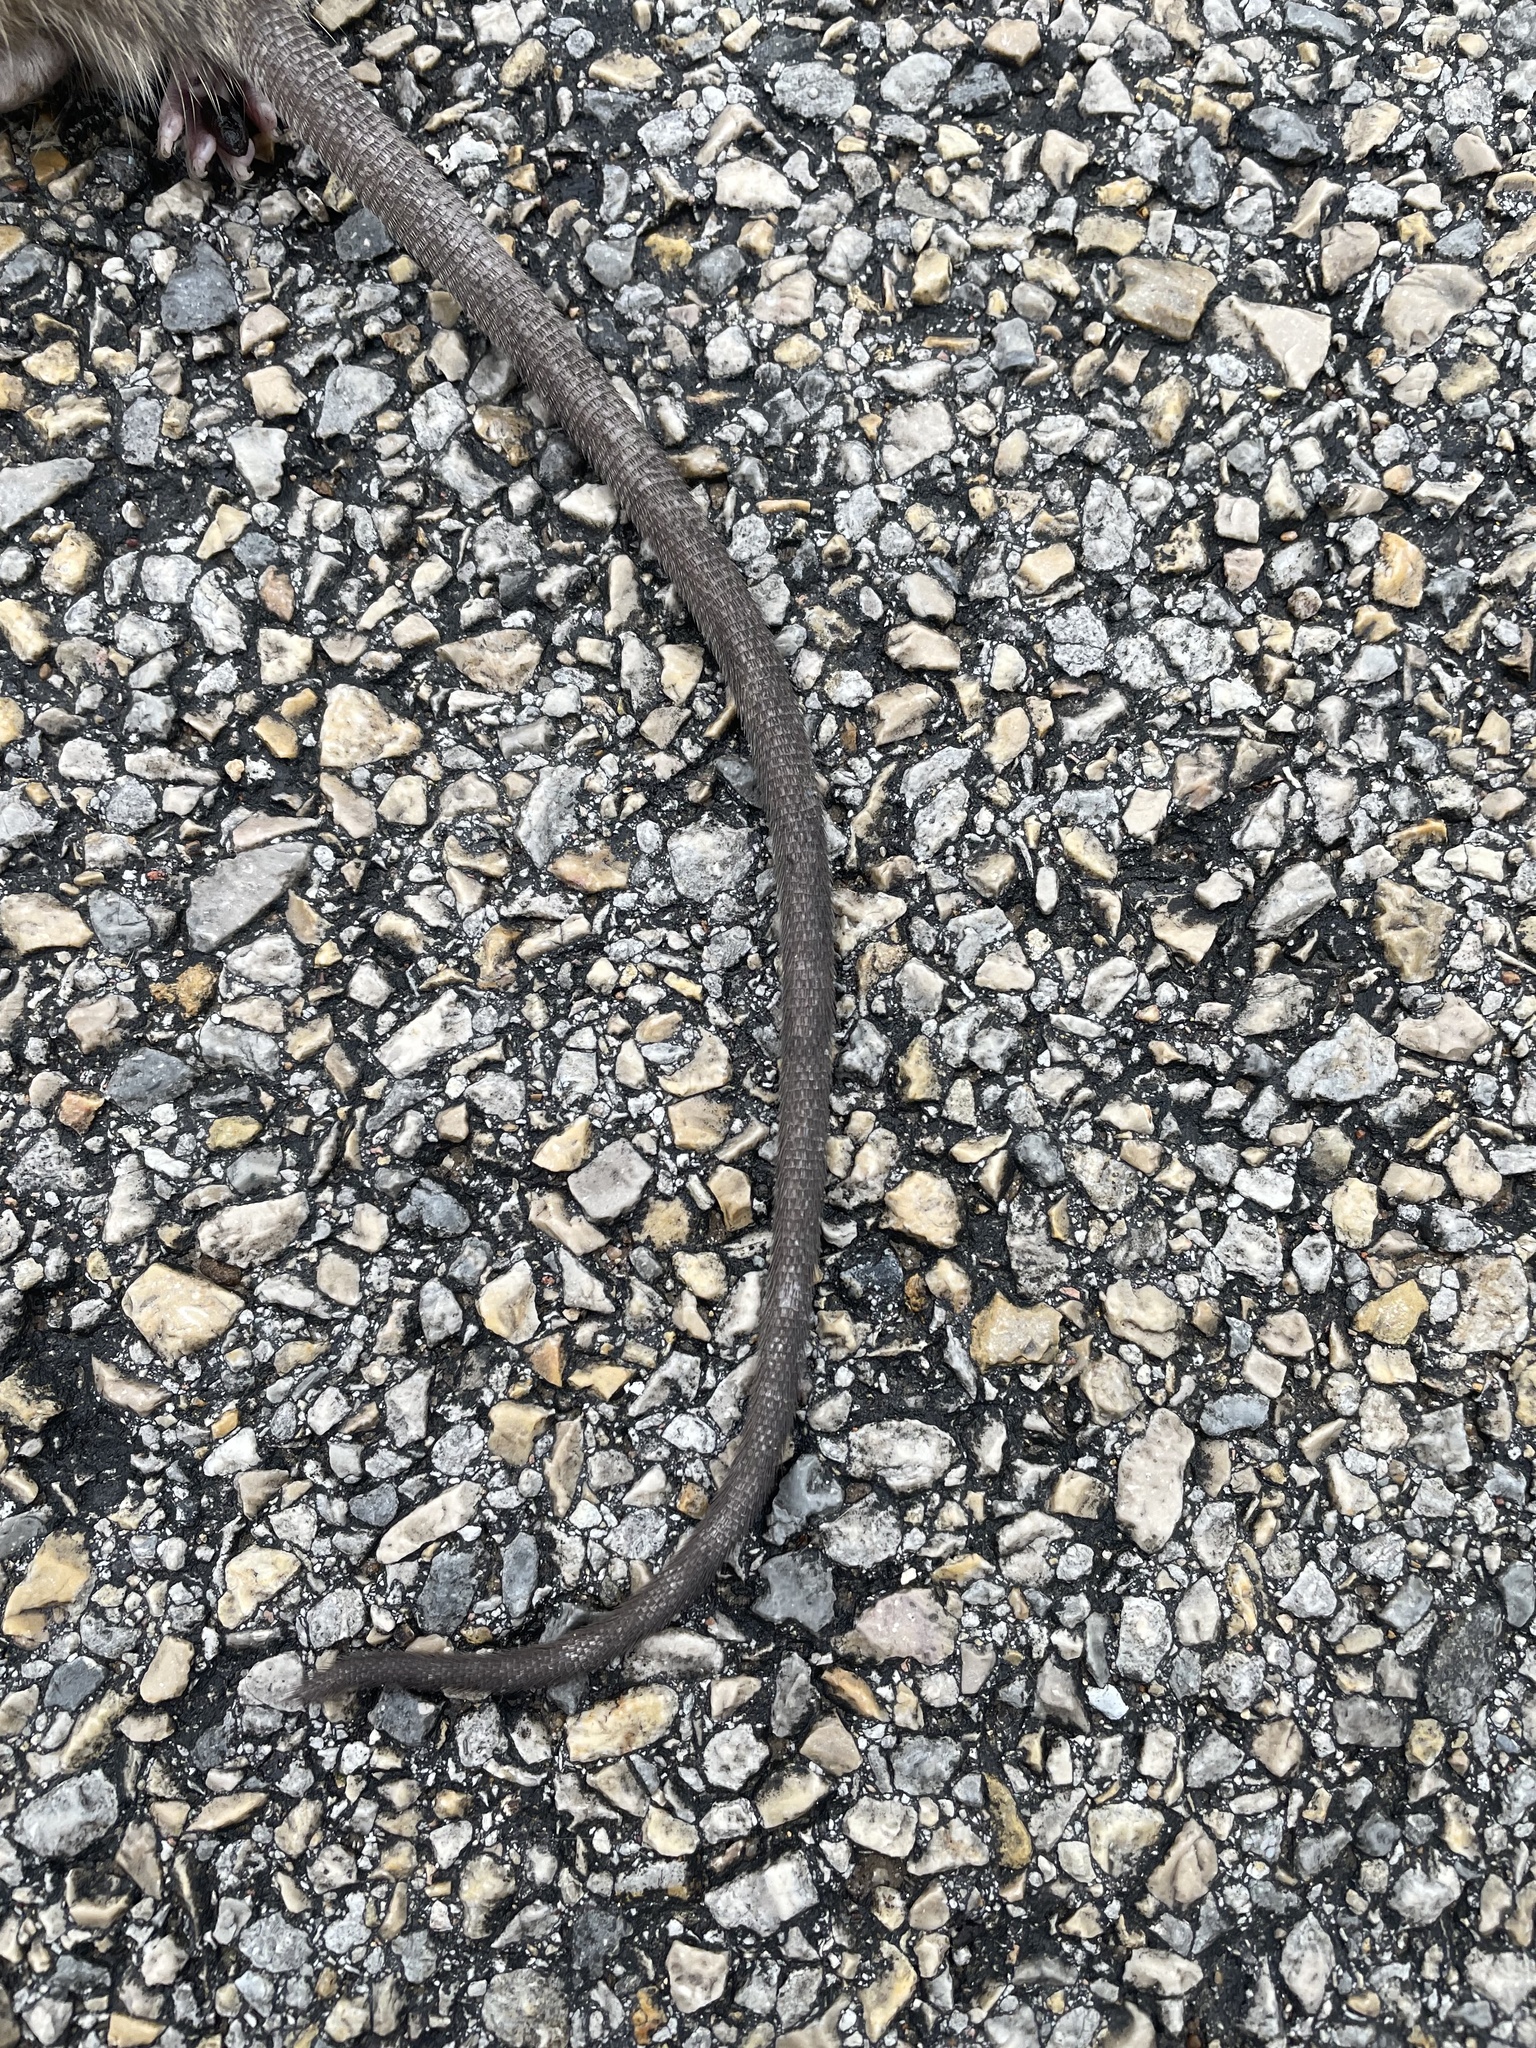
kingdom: Animalia
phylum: Chordata
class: Mammalia
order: Rodentia
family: Muridae
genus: Rattus
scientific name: Rattus rattus
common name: Black rat
